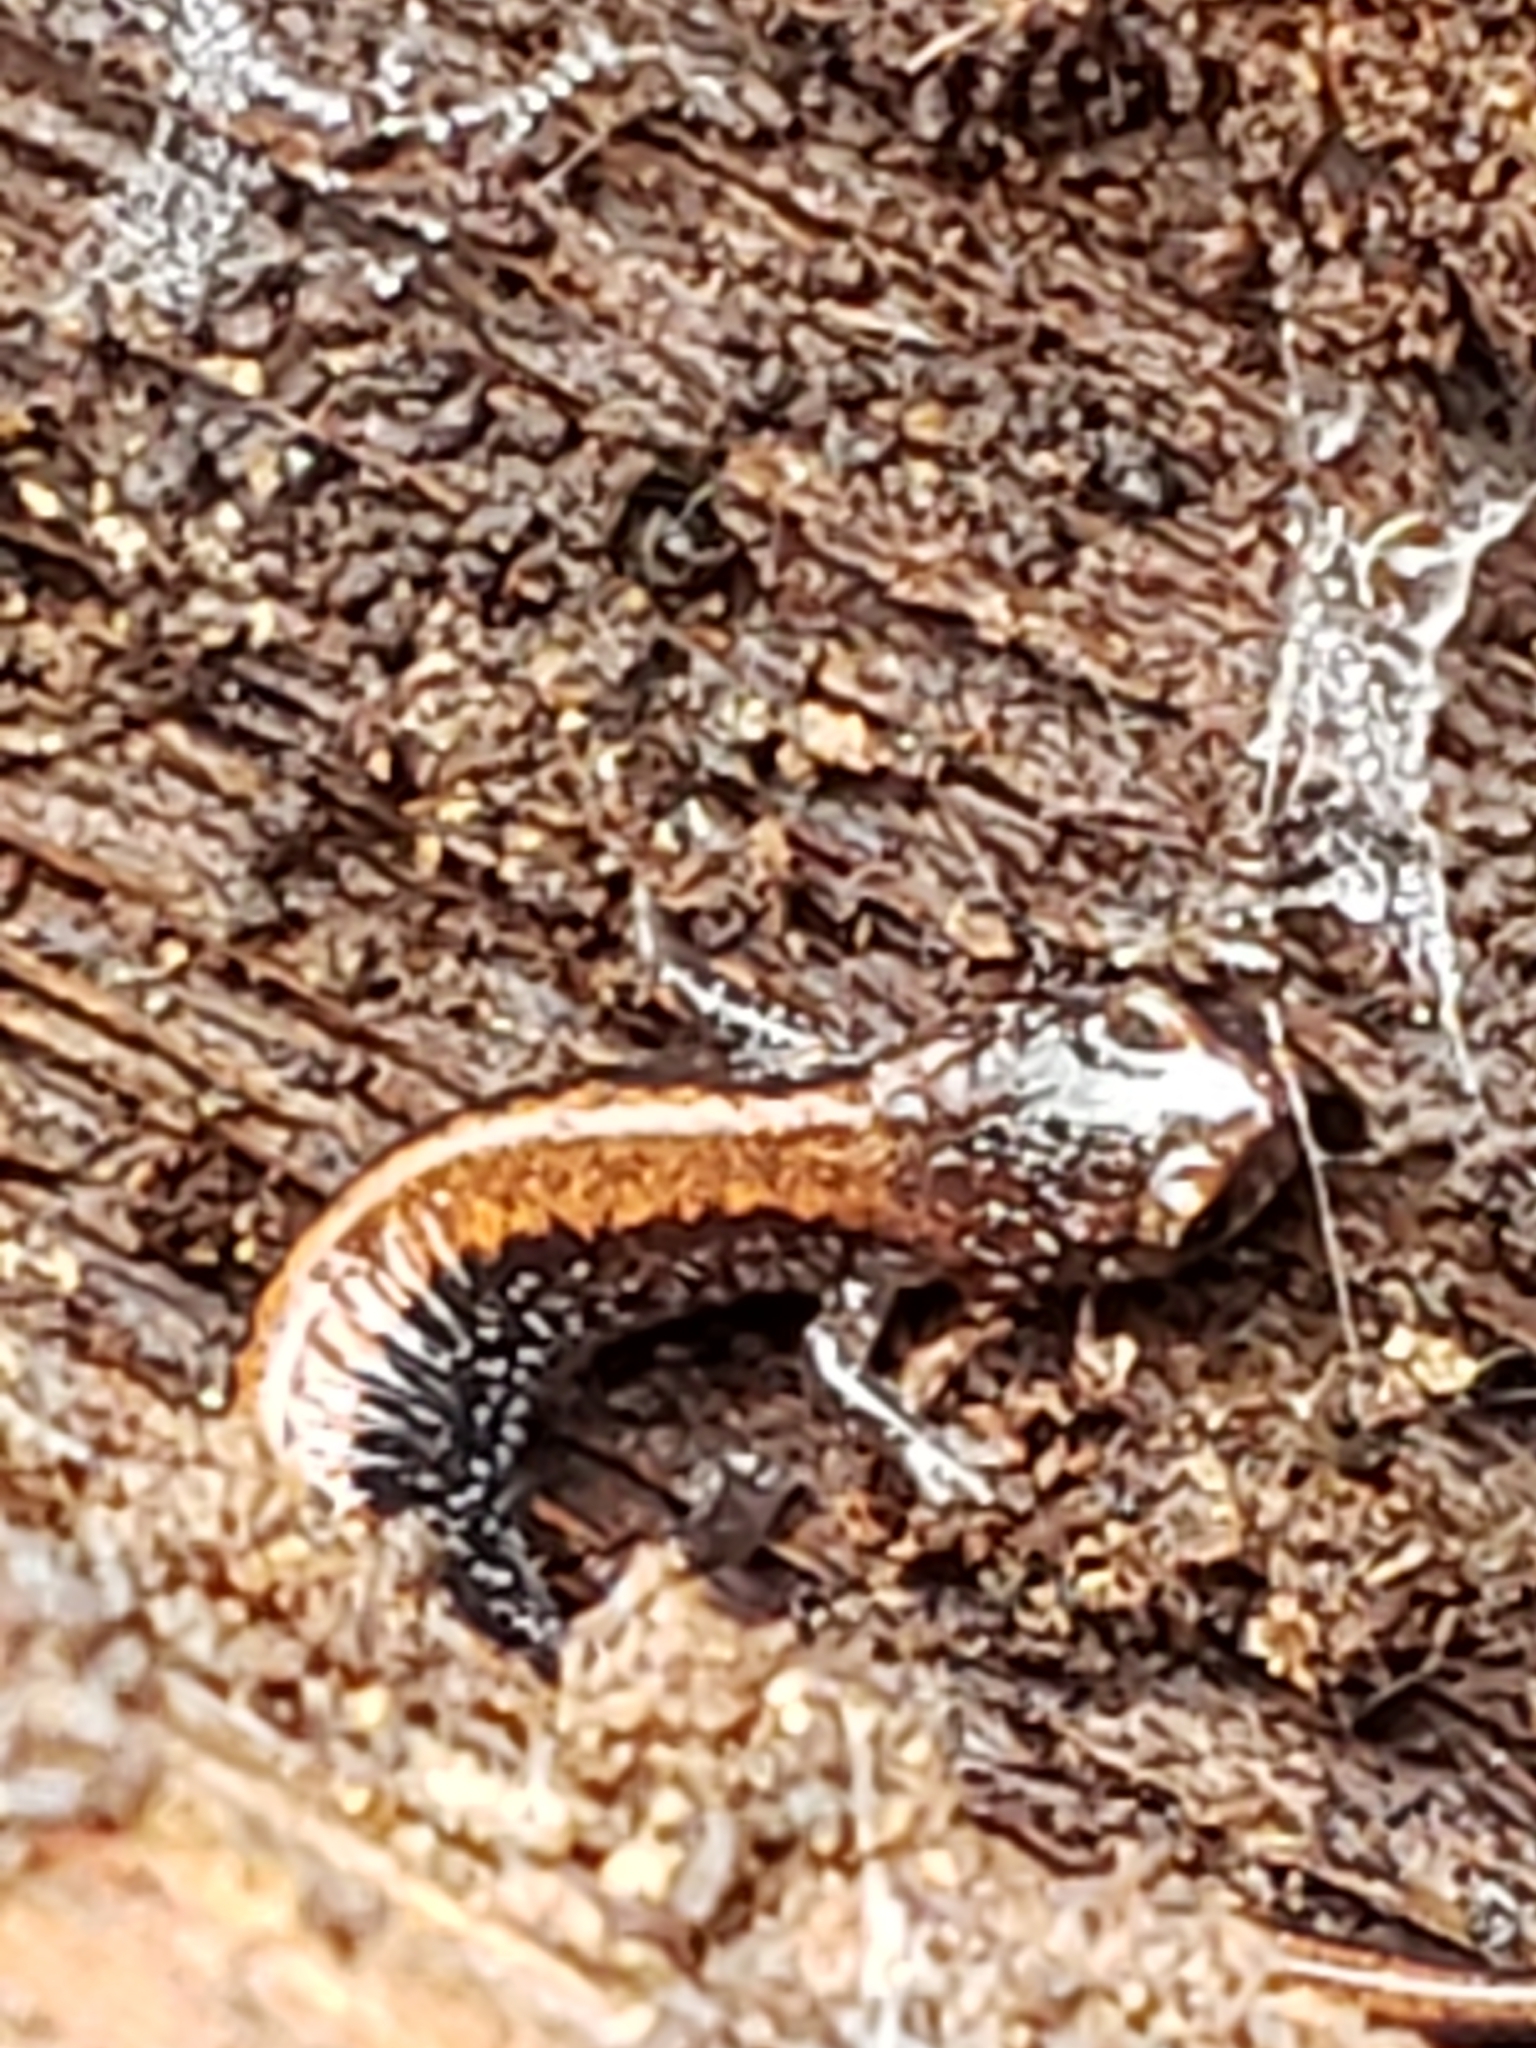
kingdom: Animalia
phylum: Chordata
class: Amphibia
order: Caudata
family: Plethodontidae
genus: Plethodon
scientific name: Plethodon cinereus
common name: Redback salamander
